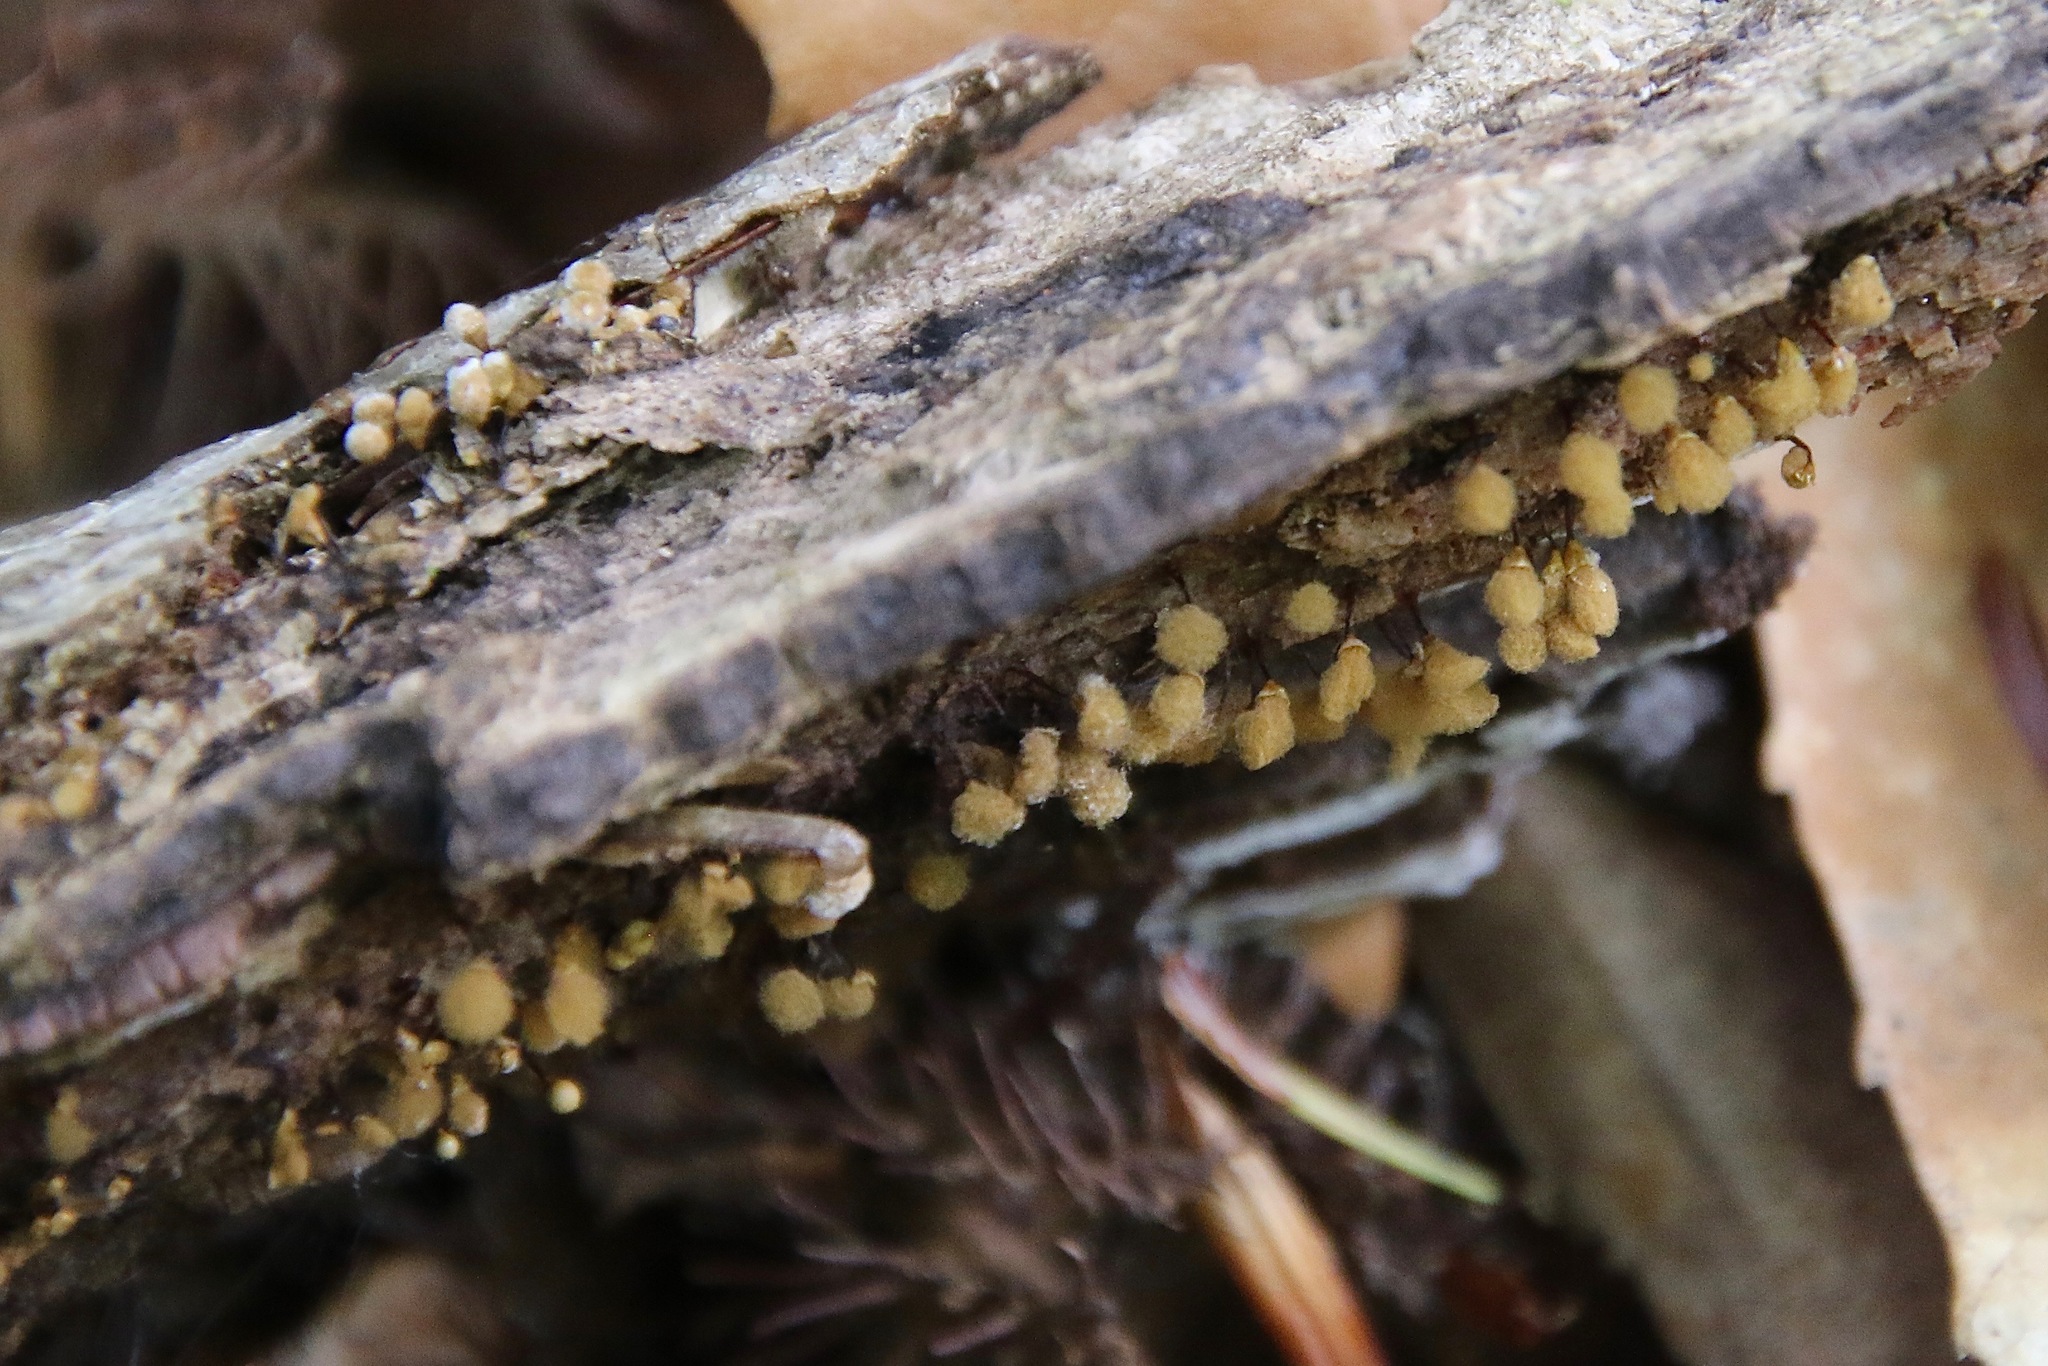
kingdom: Protozoa
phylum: Mycetozoa
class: Myxomycetes
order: Trichiales
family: Arcyriaceae
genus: Hemitrichia
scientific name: Hemitrichia calyculata
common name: Push pin slime mold
